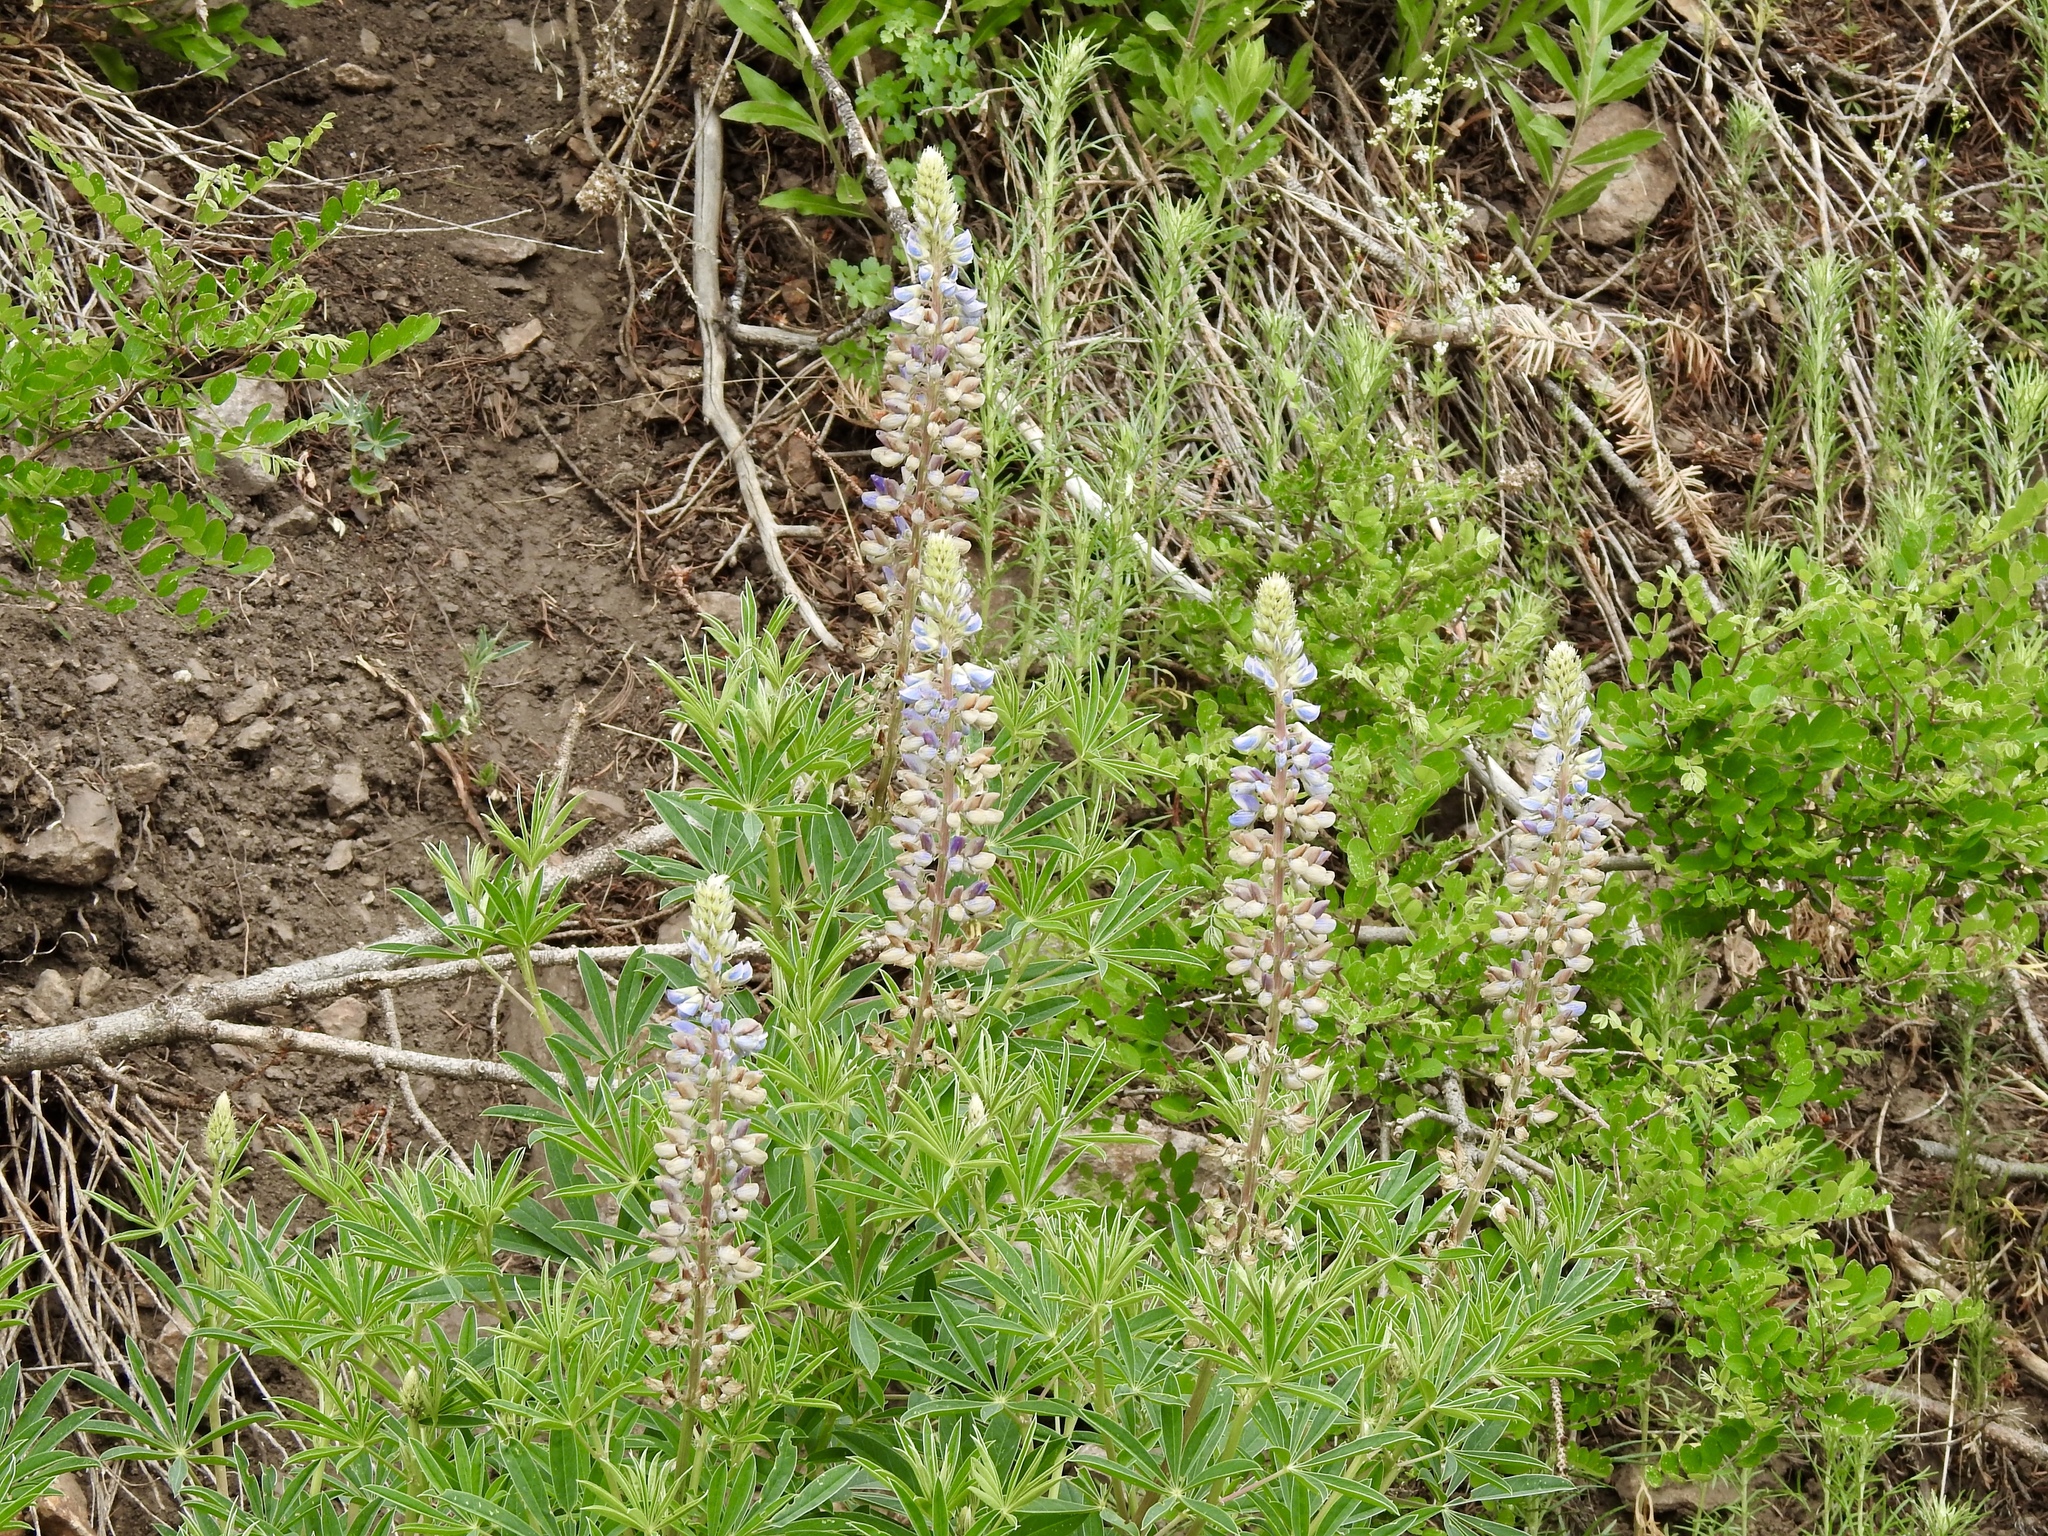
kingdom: Plantae
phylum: Tracheophyta
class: Magnoliopsida
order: Fabales
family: Fabaceae
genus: Lupinus
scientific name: Lupinus sierrae-blancae
